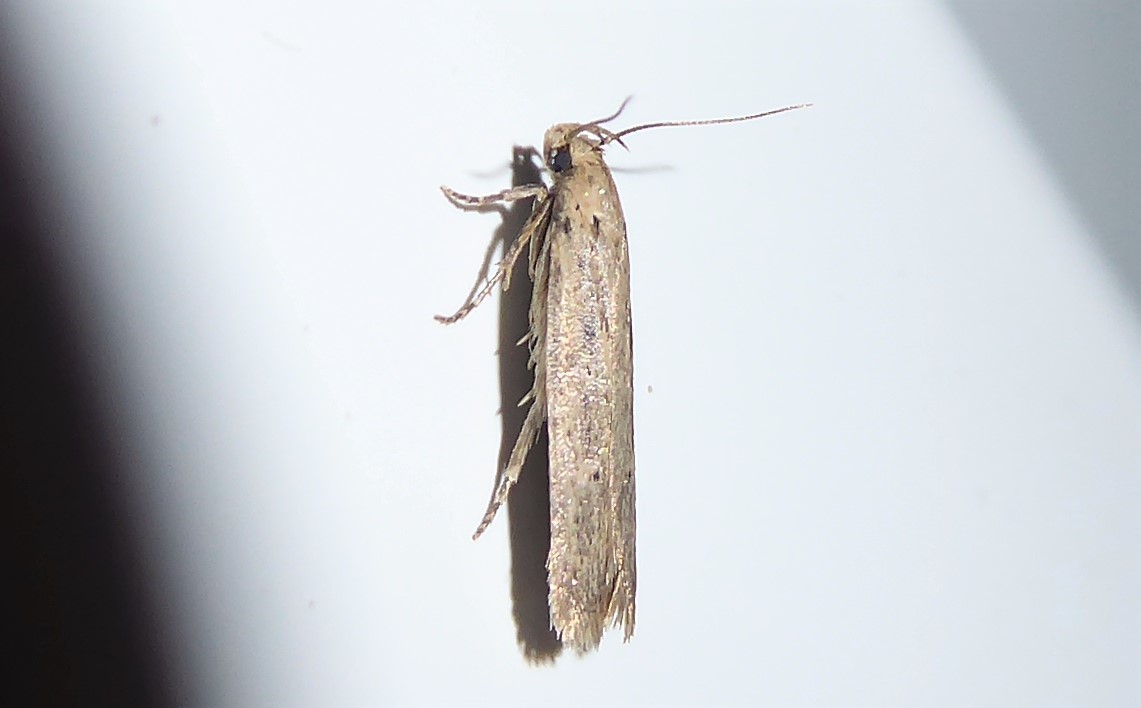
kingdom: Animalia
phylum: Arthropoda
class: Insecta
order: Lepidoptera
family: Gelechiidae
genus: Platyedra
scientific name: Platyedra subcinerea
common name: Moth
